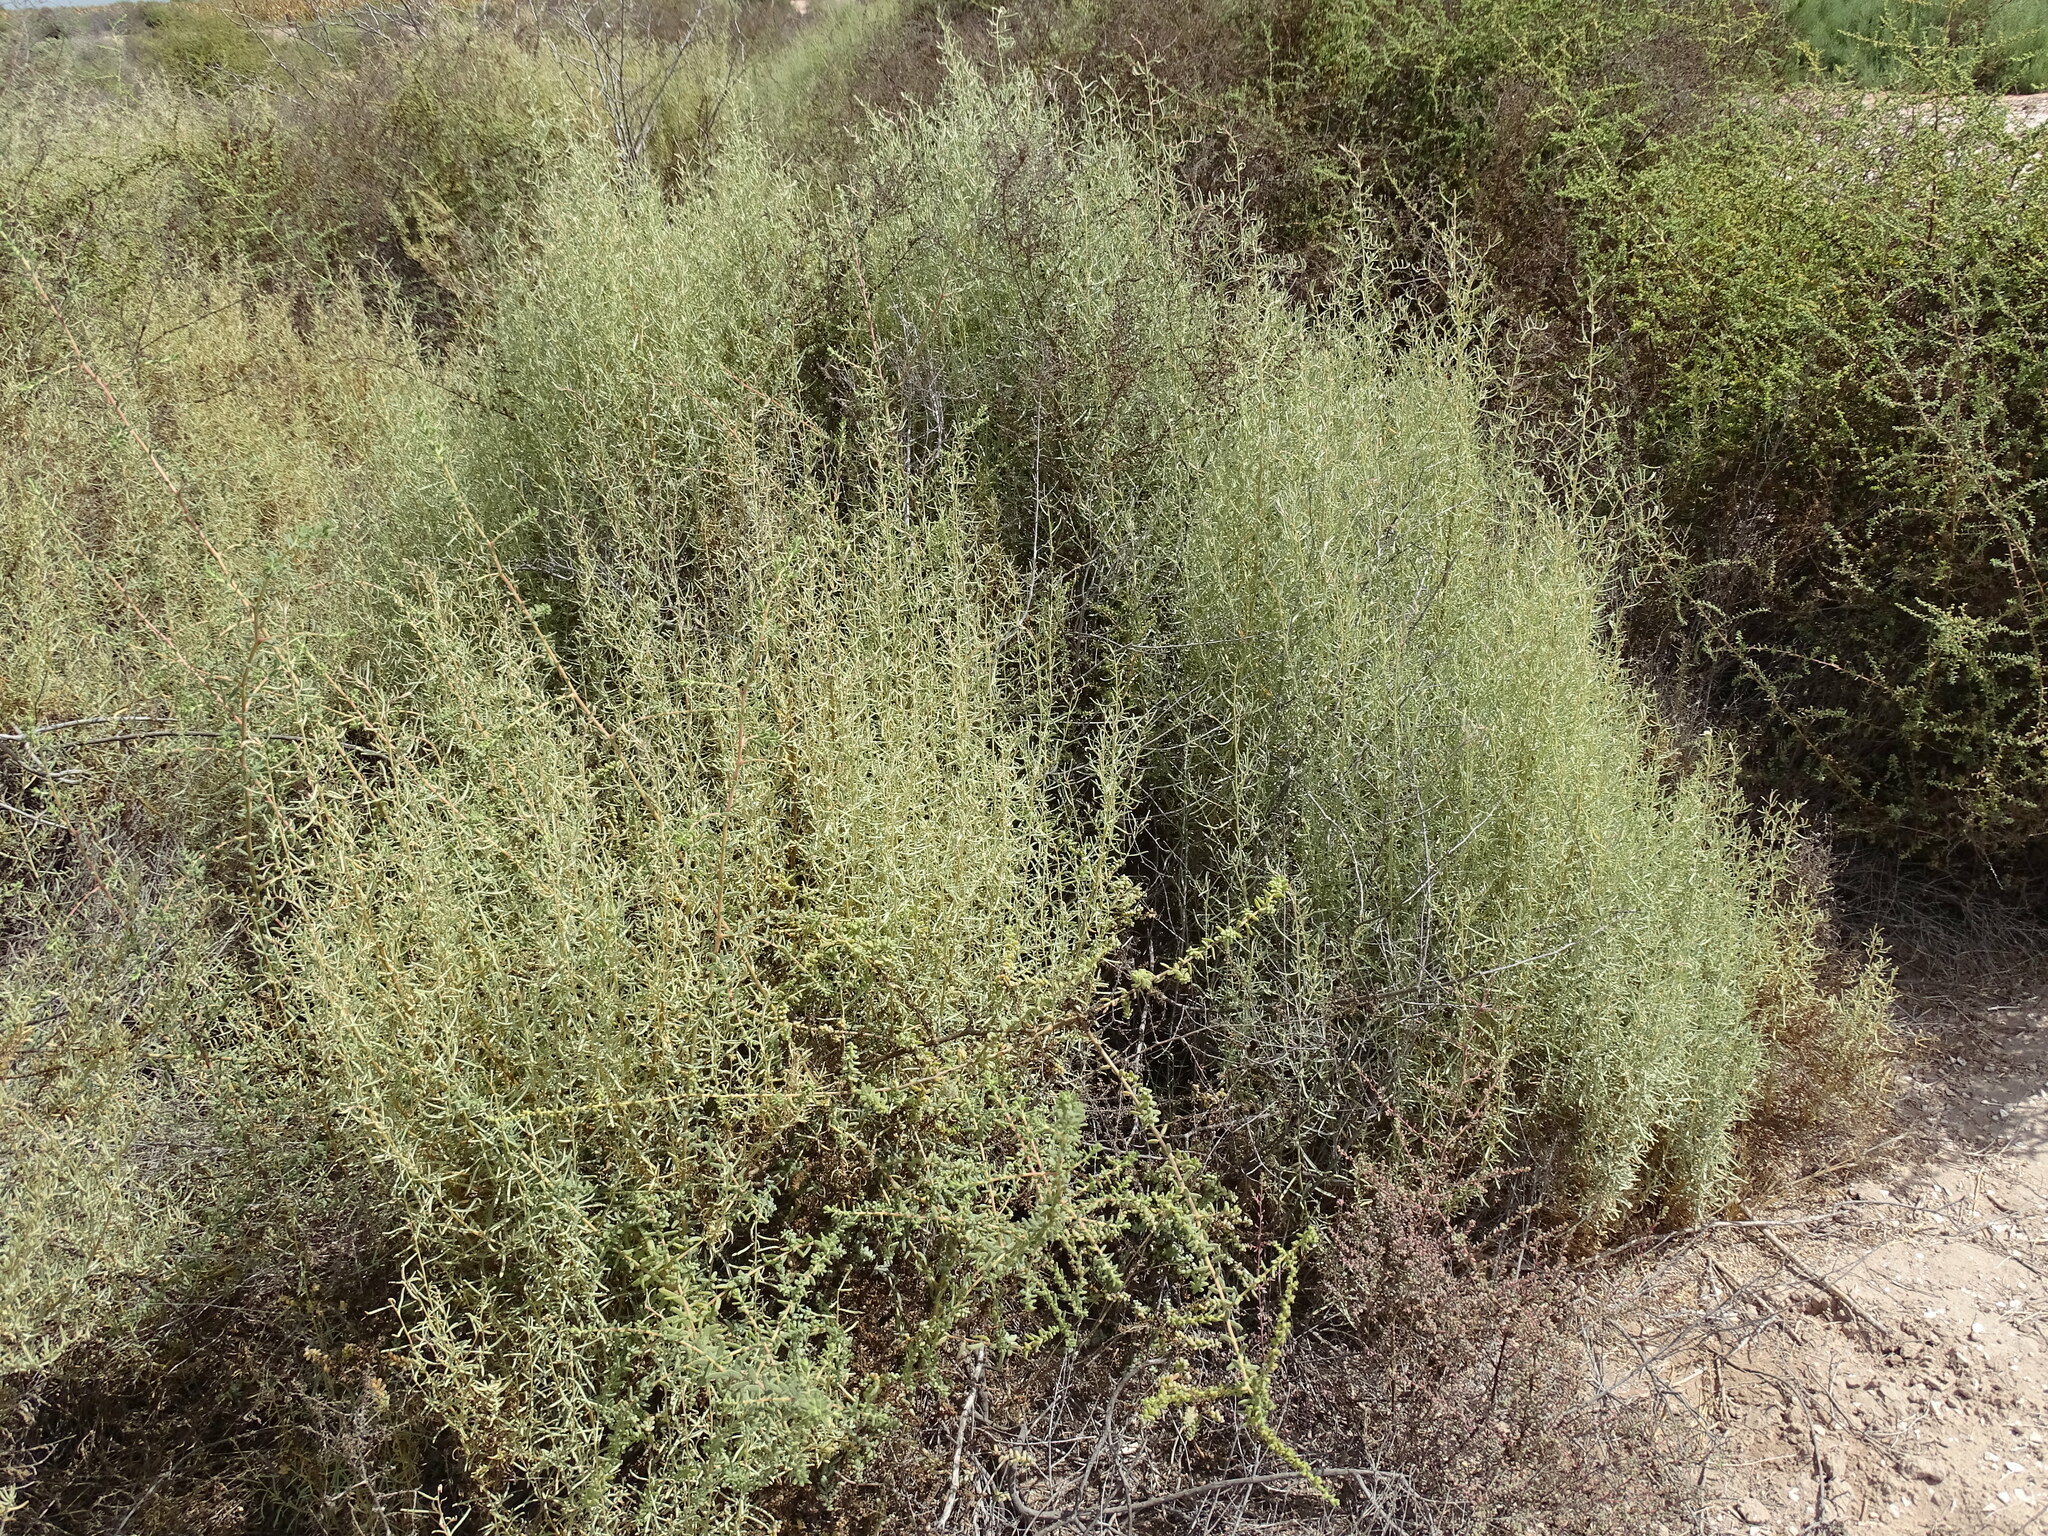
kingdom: Plantae
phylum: Tracheophyta
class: Magnoliopsida
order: Caryophyllales
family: Amaranthaceae
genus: Atriplex
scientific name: Atriplex linearis
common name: Slender-leaf saltbush
